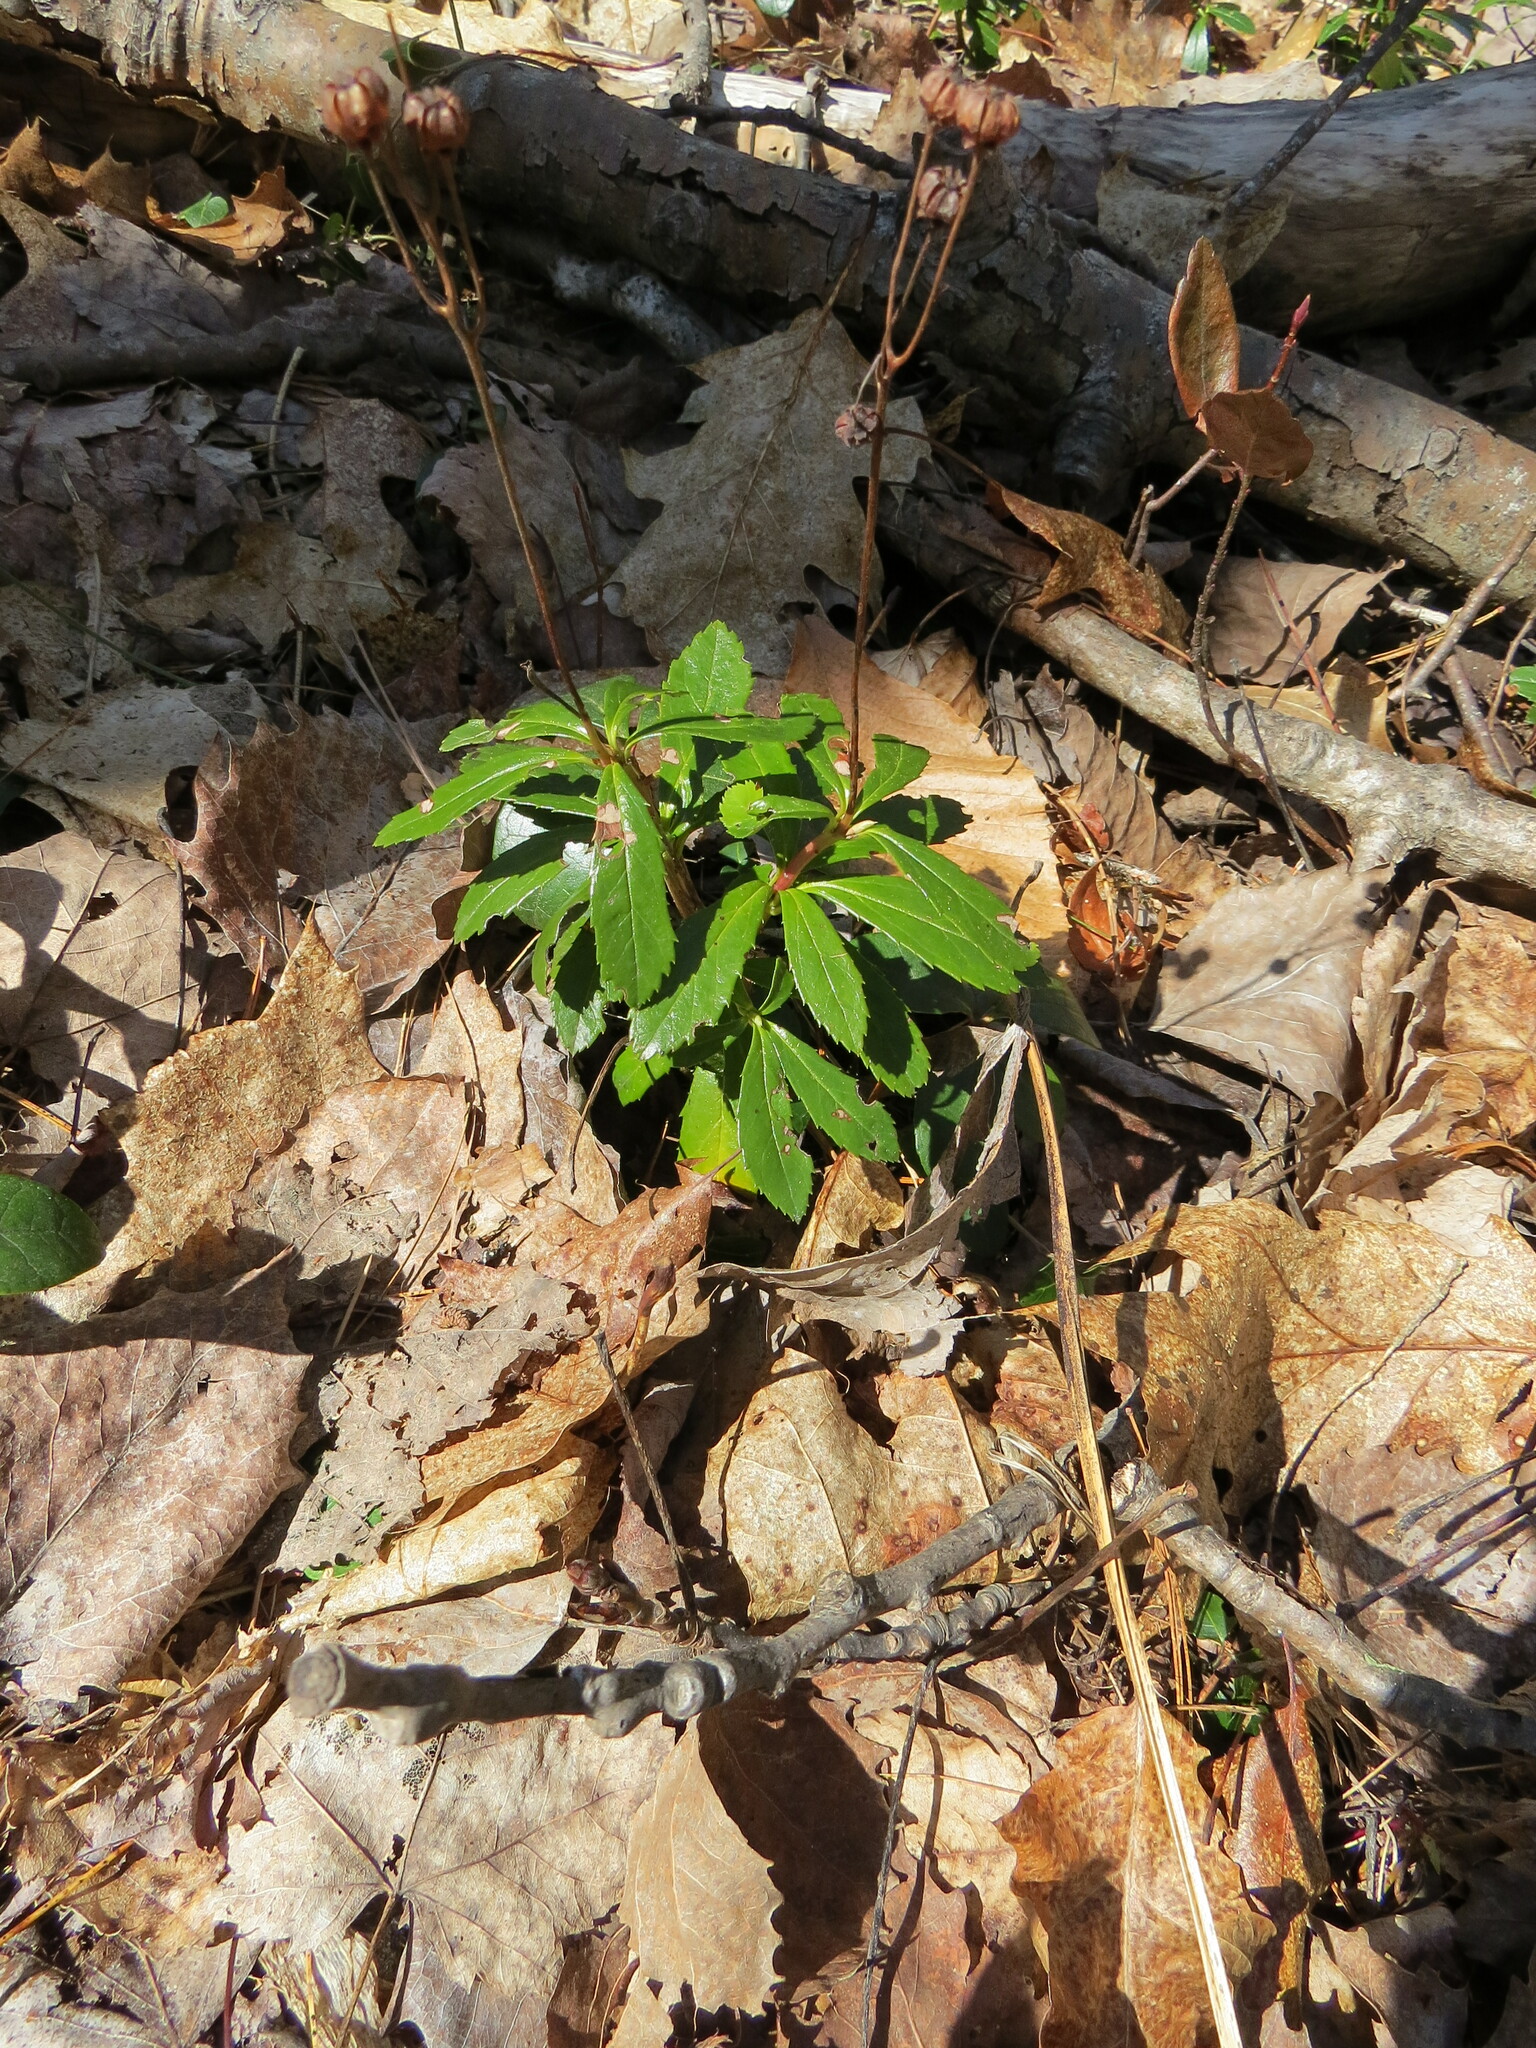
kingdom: Plantae
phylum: Tracheophyta
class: Magnoliopsida
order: Ericales
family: Ericaceae
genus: Chimaphila
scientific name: Chimaphila umbellata
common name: Pipsissewa
